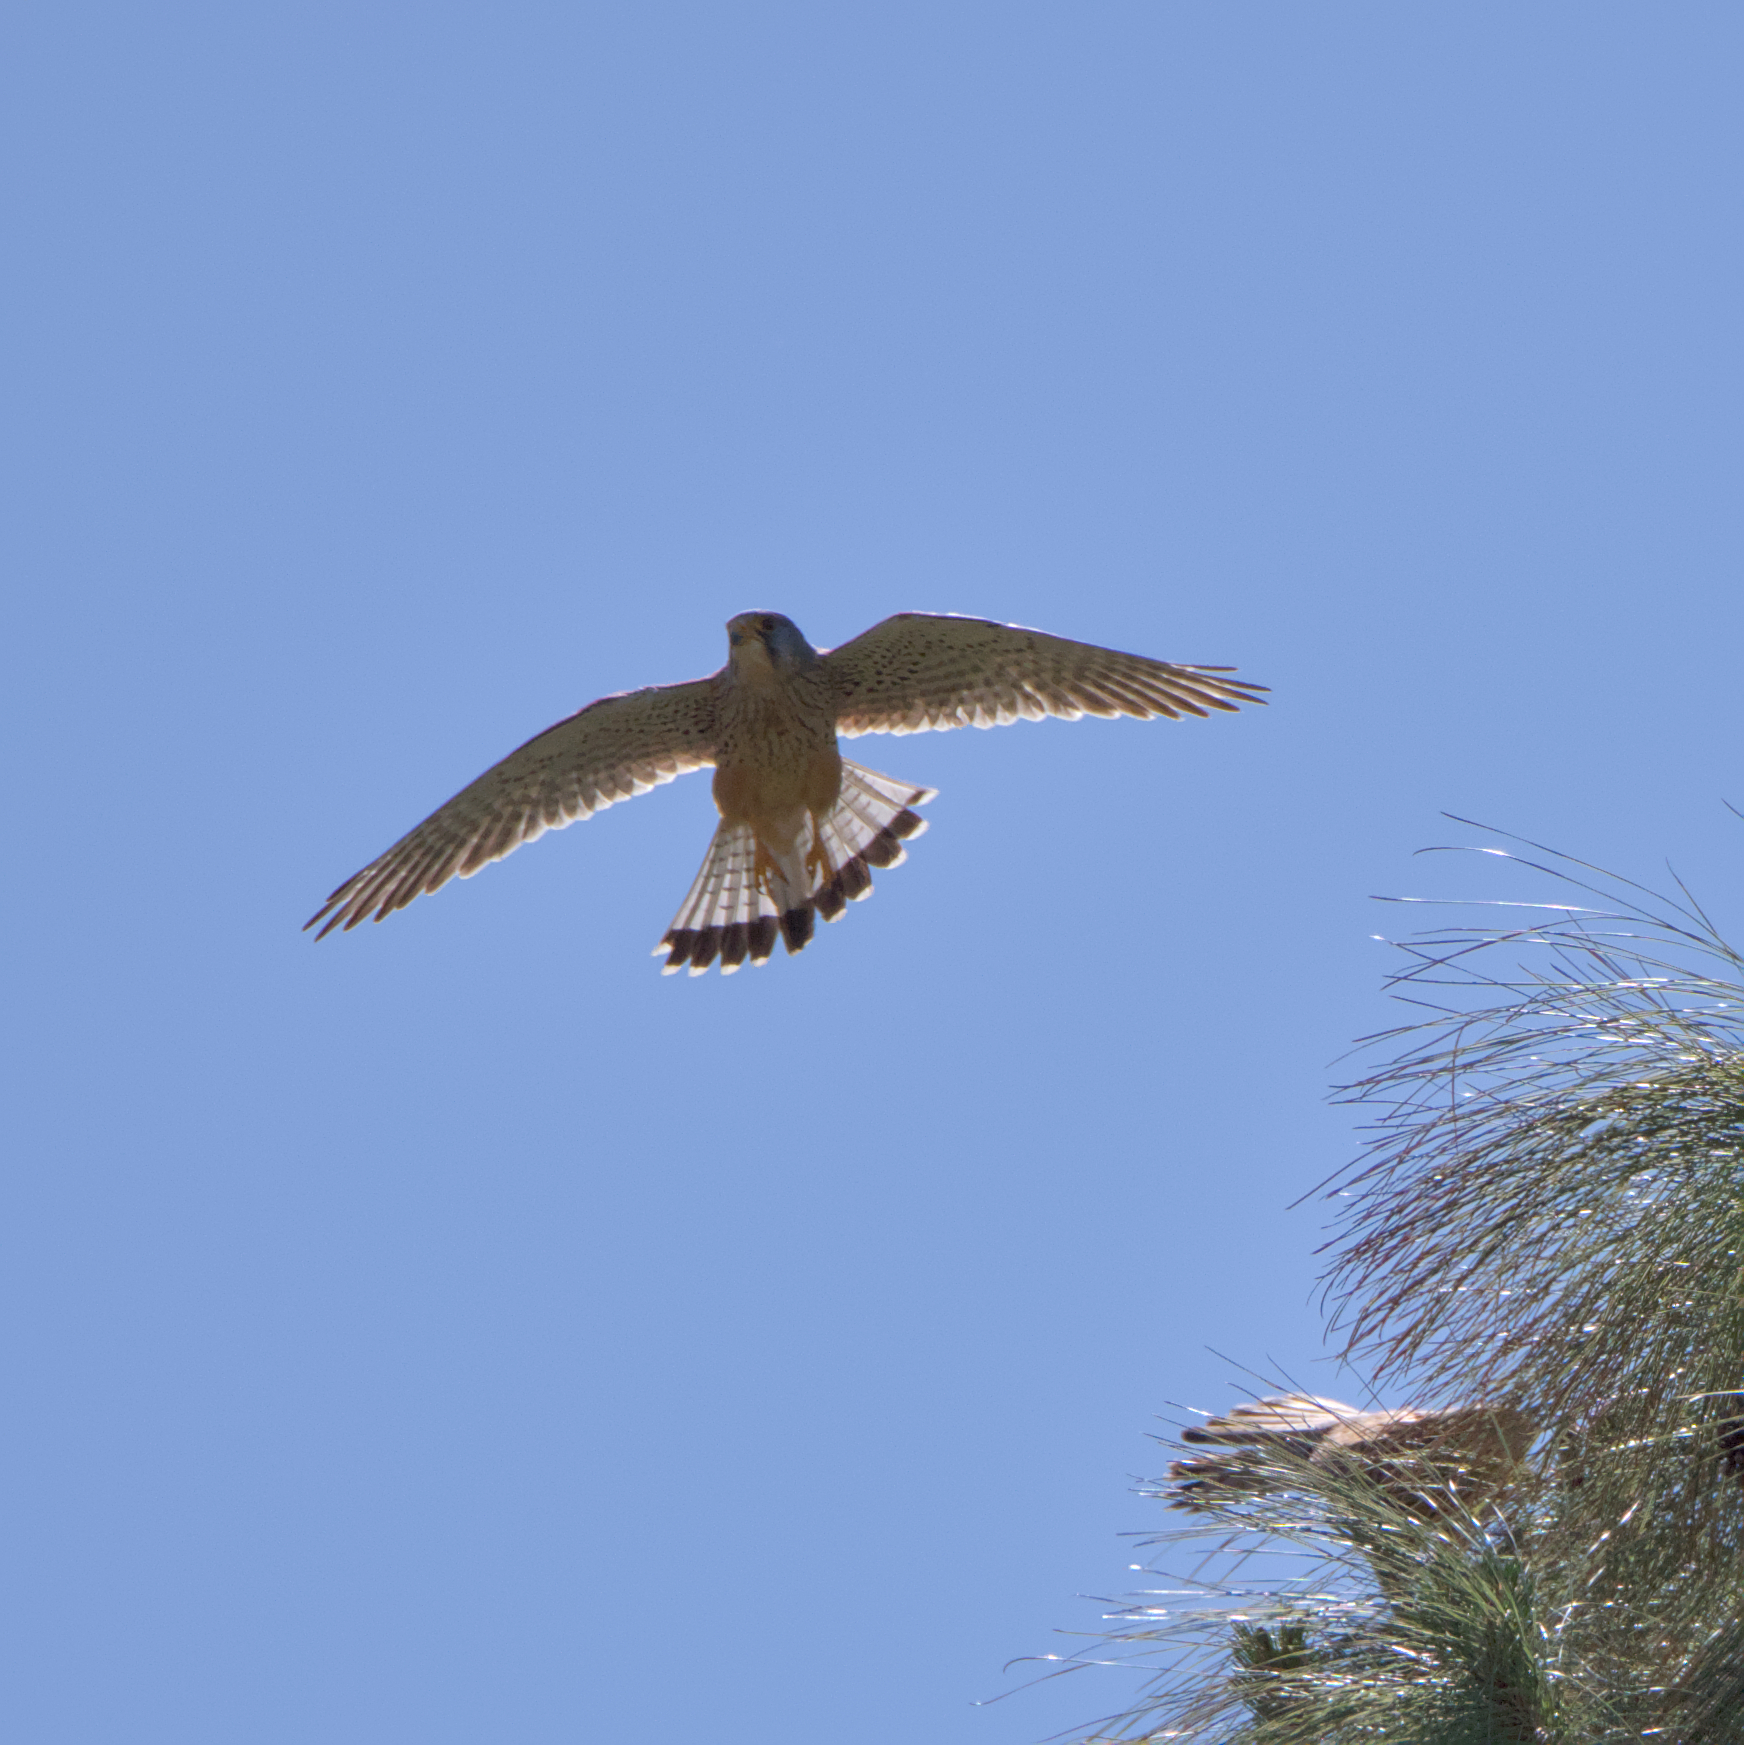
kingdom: Animalia
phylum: Chordata
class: Aves
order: Falconiformes
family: Falconidae
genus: Falco
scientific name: Falco tinnunculus
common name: Common kestrel
